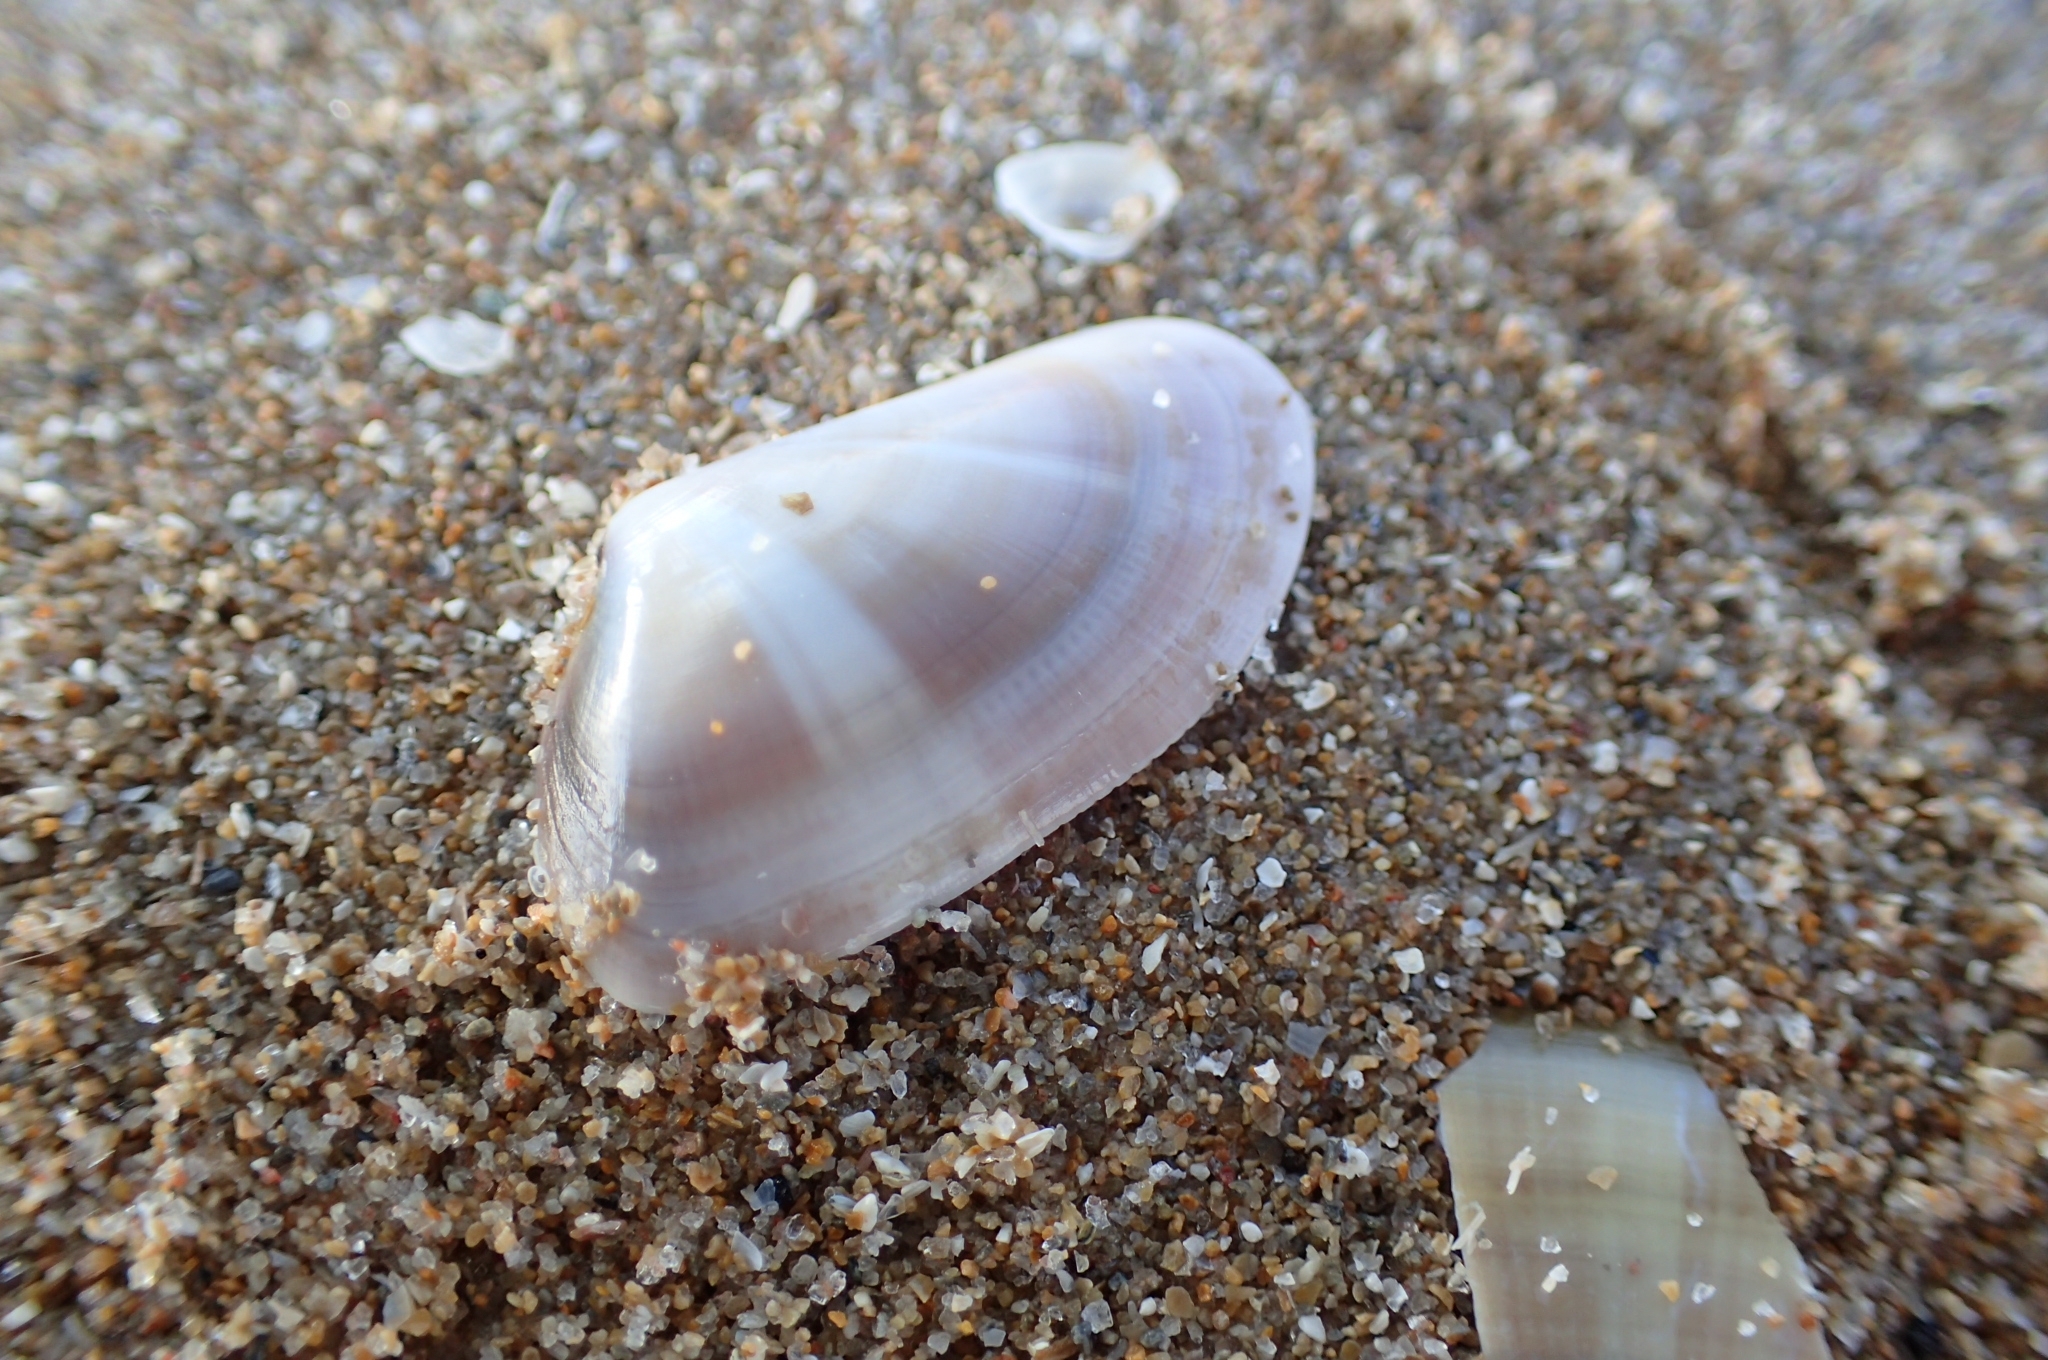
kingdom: Animalia
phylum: Mollusca
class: Bivalvia
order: Cardiida
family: Donacidae
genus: Donax
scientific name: Donax trunculus
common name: Truncate donax
